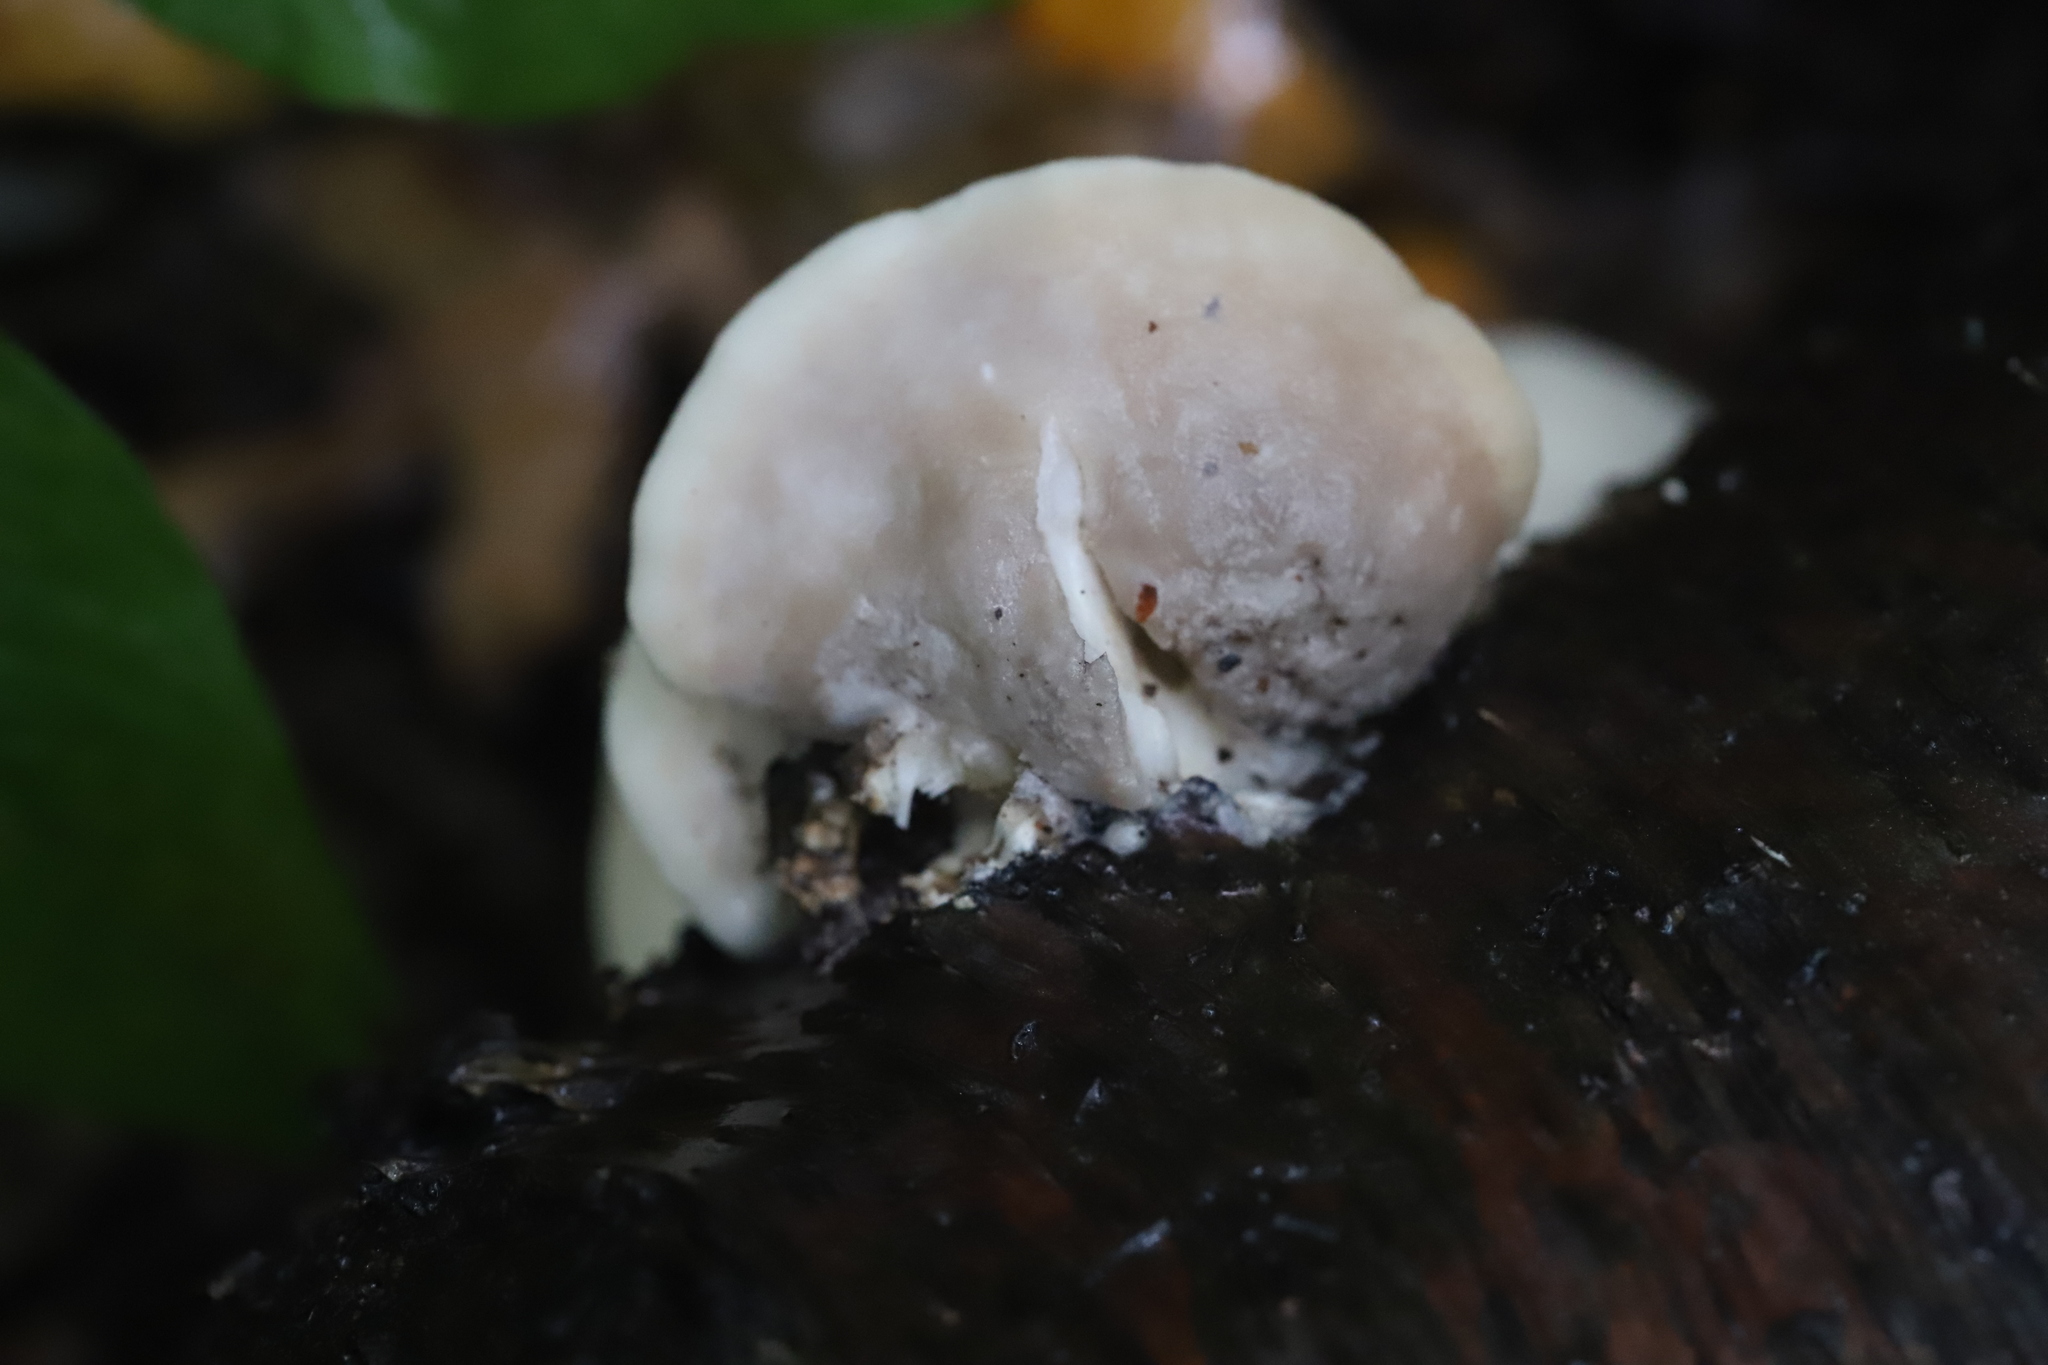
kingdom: Fungi
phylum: Basidiomycota
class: Agaricomycetes
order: Polyporales
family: Incrustoporiaceae
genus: Tyromyces
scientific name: Tyromyces chioneus
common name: White cheese polypore
